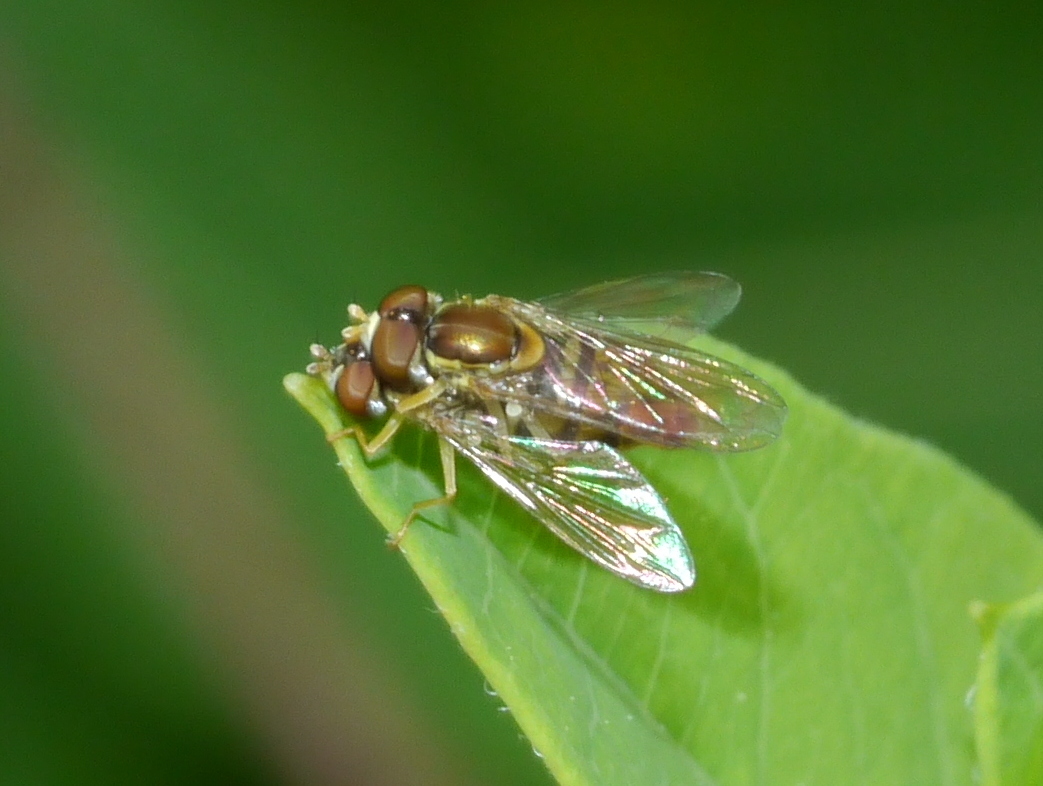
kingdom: Animalia
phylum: Arthropoda
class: Insecta
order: Diptera
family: Syrphidae
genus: Toxomerus
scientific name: Toxomerus marginatus
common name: Syrphid fly
